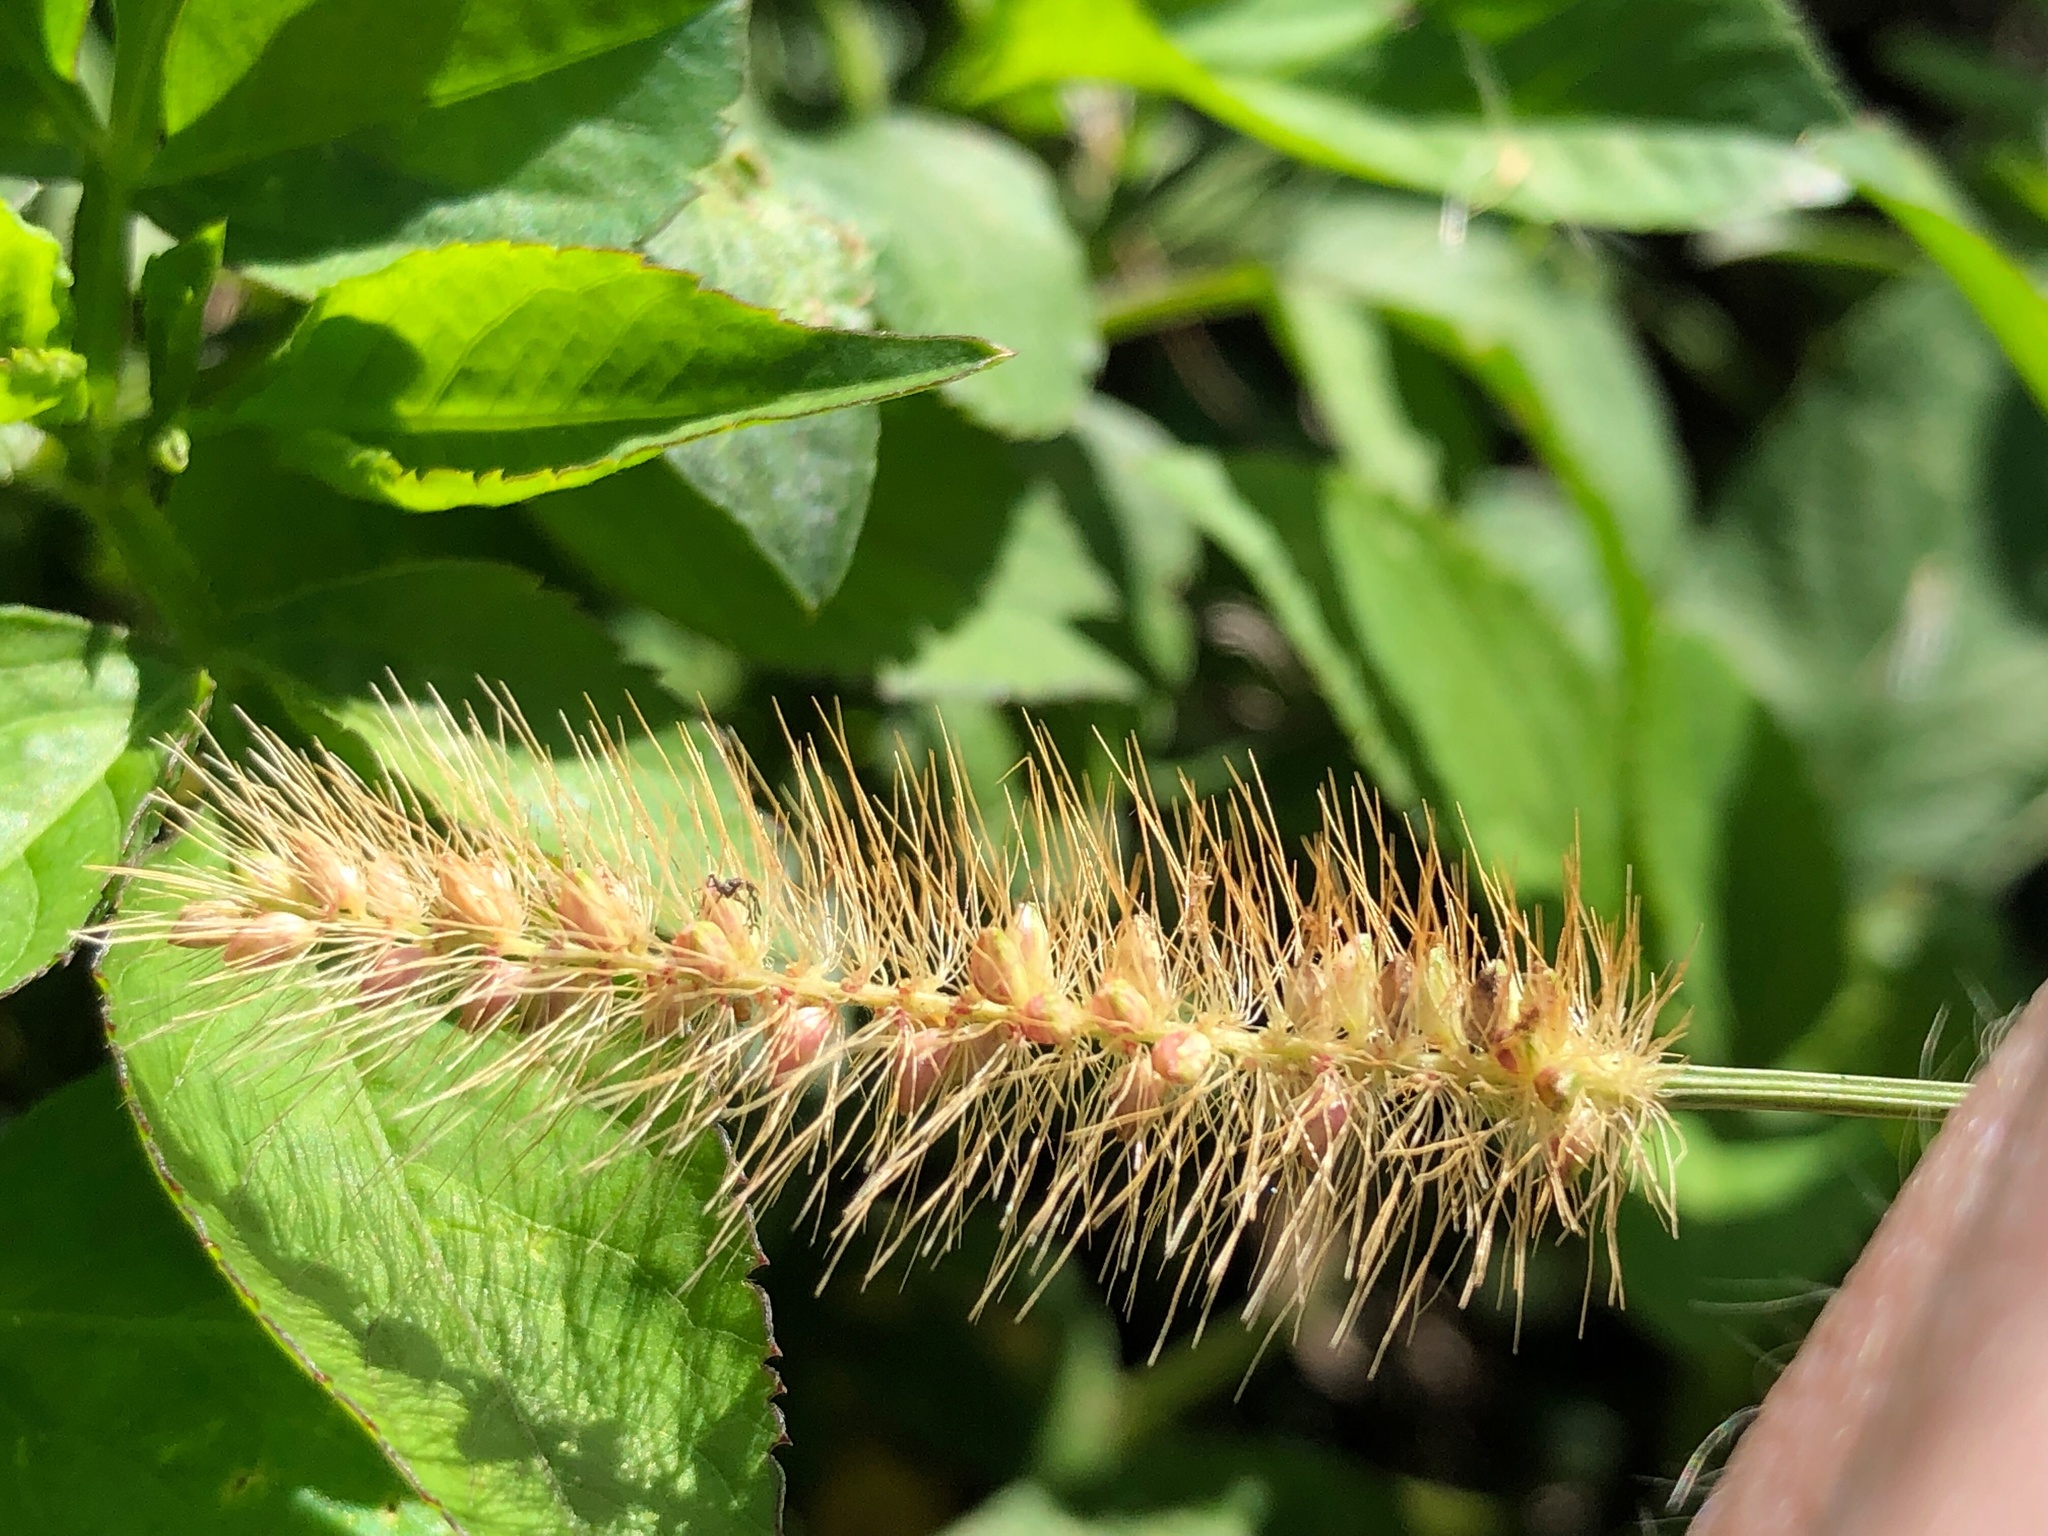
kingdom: Plantae
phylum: Tracheophyta
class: Liliopsida
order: Poales
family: Poaceae
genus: Setaria
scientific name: Setaria parviflora
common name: Knotroot bristle-grass
